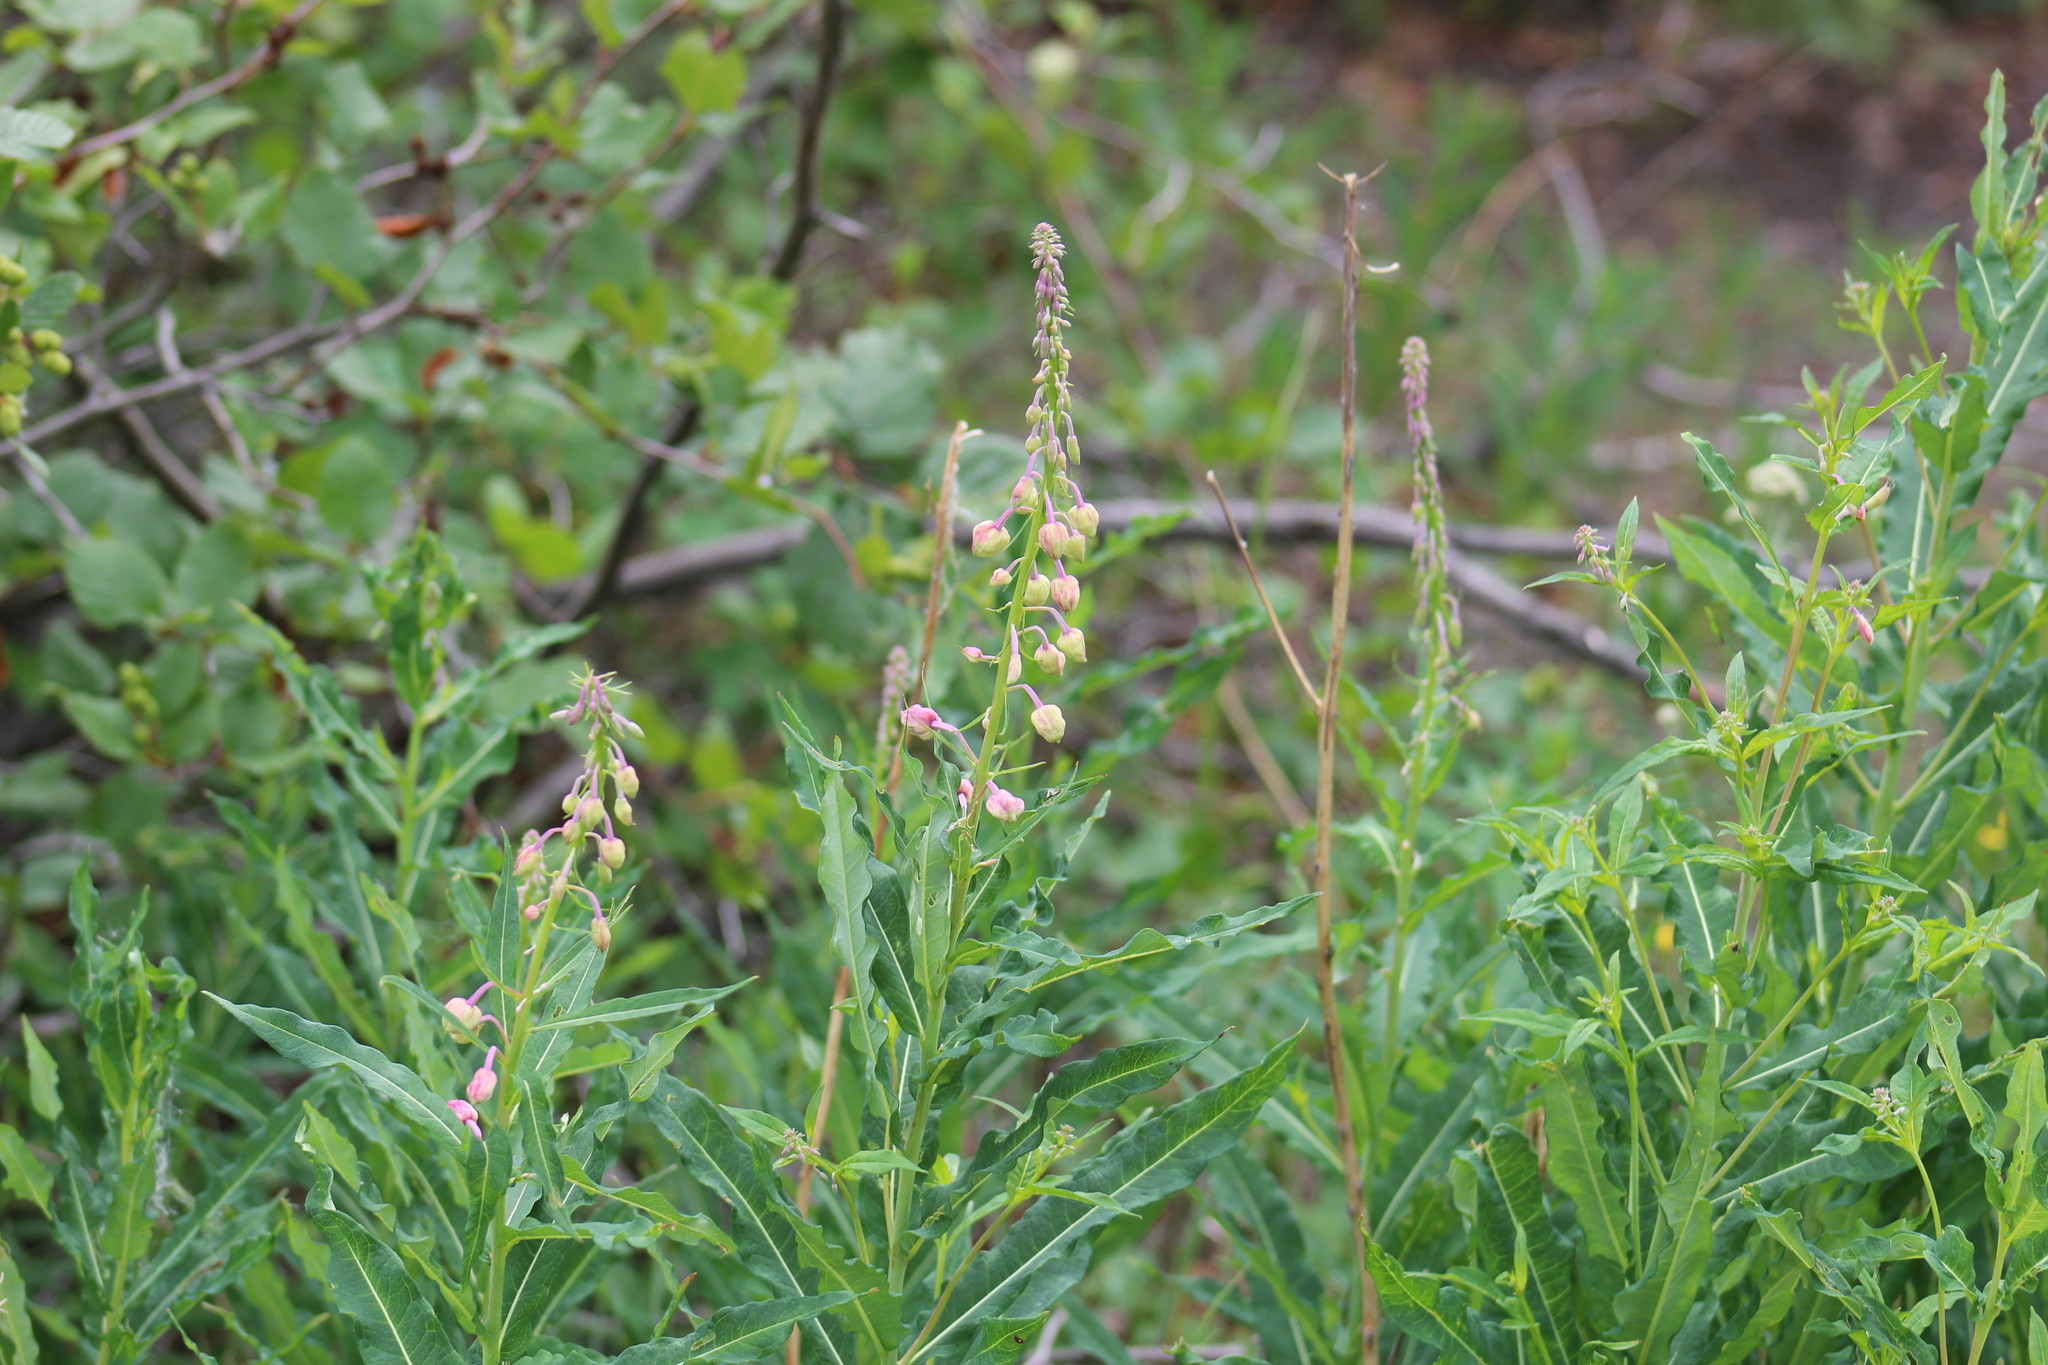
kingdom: Plantae
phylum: Tracheophyta
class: Magnoliopsida
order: Myrtales
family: Onagraceae
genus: Chamaenerion
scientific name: Chamaenerion angustifolium
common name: Fireweed
